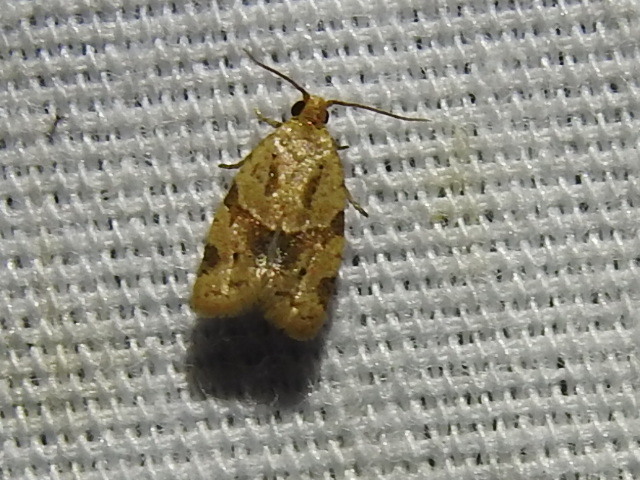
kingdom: Animalia
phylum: Arthropoda
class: Insecta
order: Lepidoptera
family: Tortricidae
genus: Clepsis
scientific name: Clepsis peritana
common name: Garden tortrix
